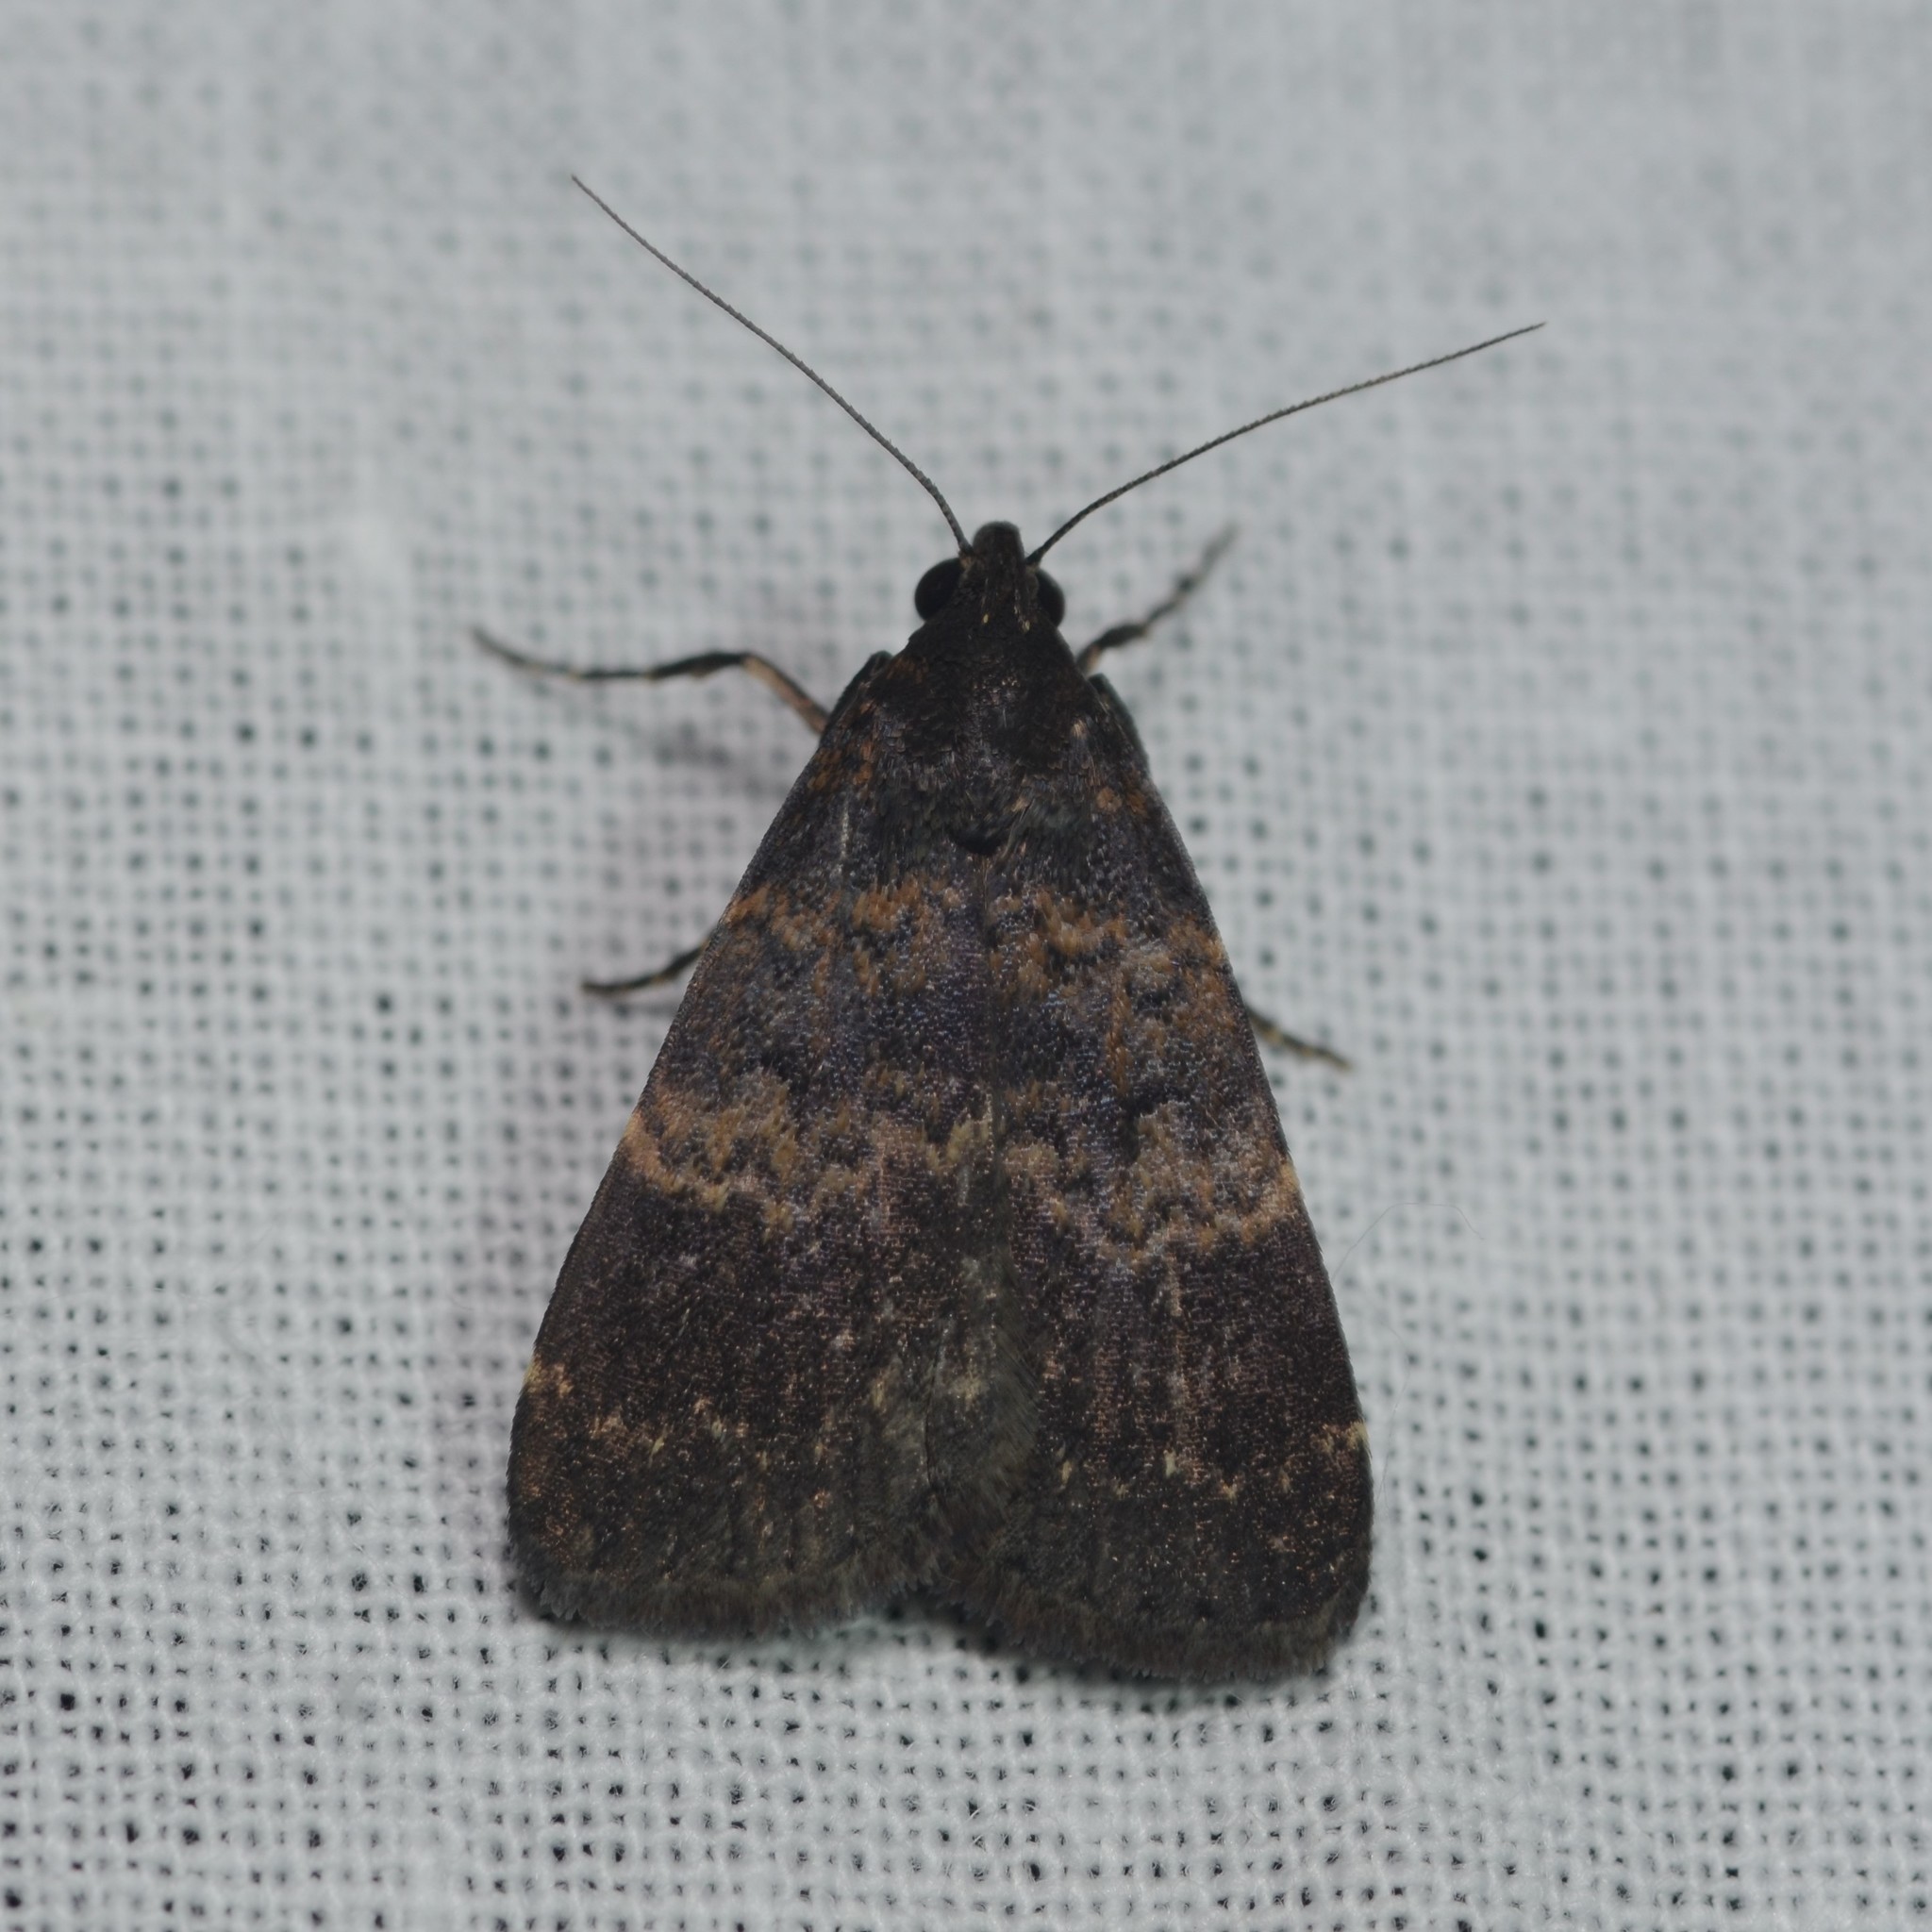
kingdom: Animalia
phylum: Arthropoda
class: Insecta
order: Lepidoptera
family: Erebidae
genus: Hydrillodes
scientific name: Hydrillodes uliginosalis
